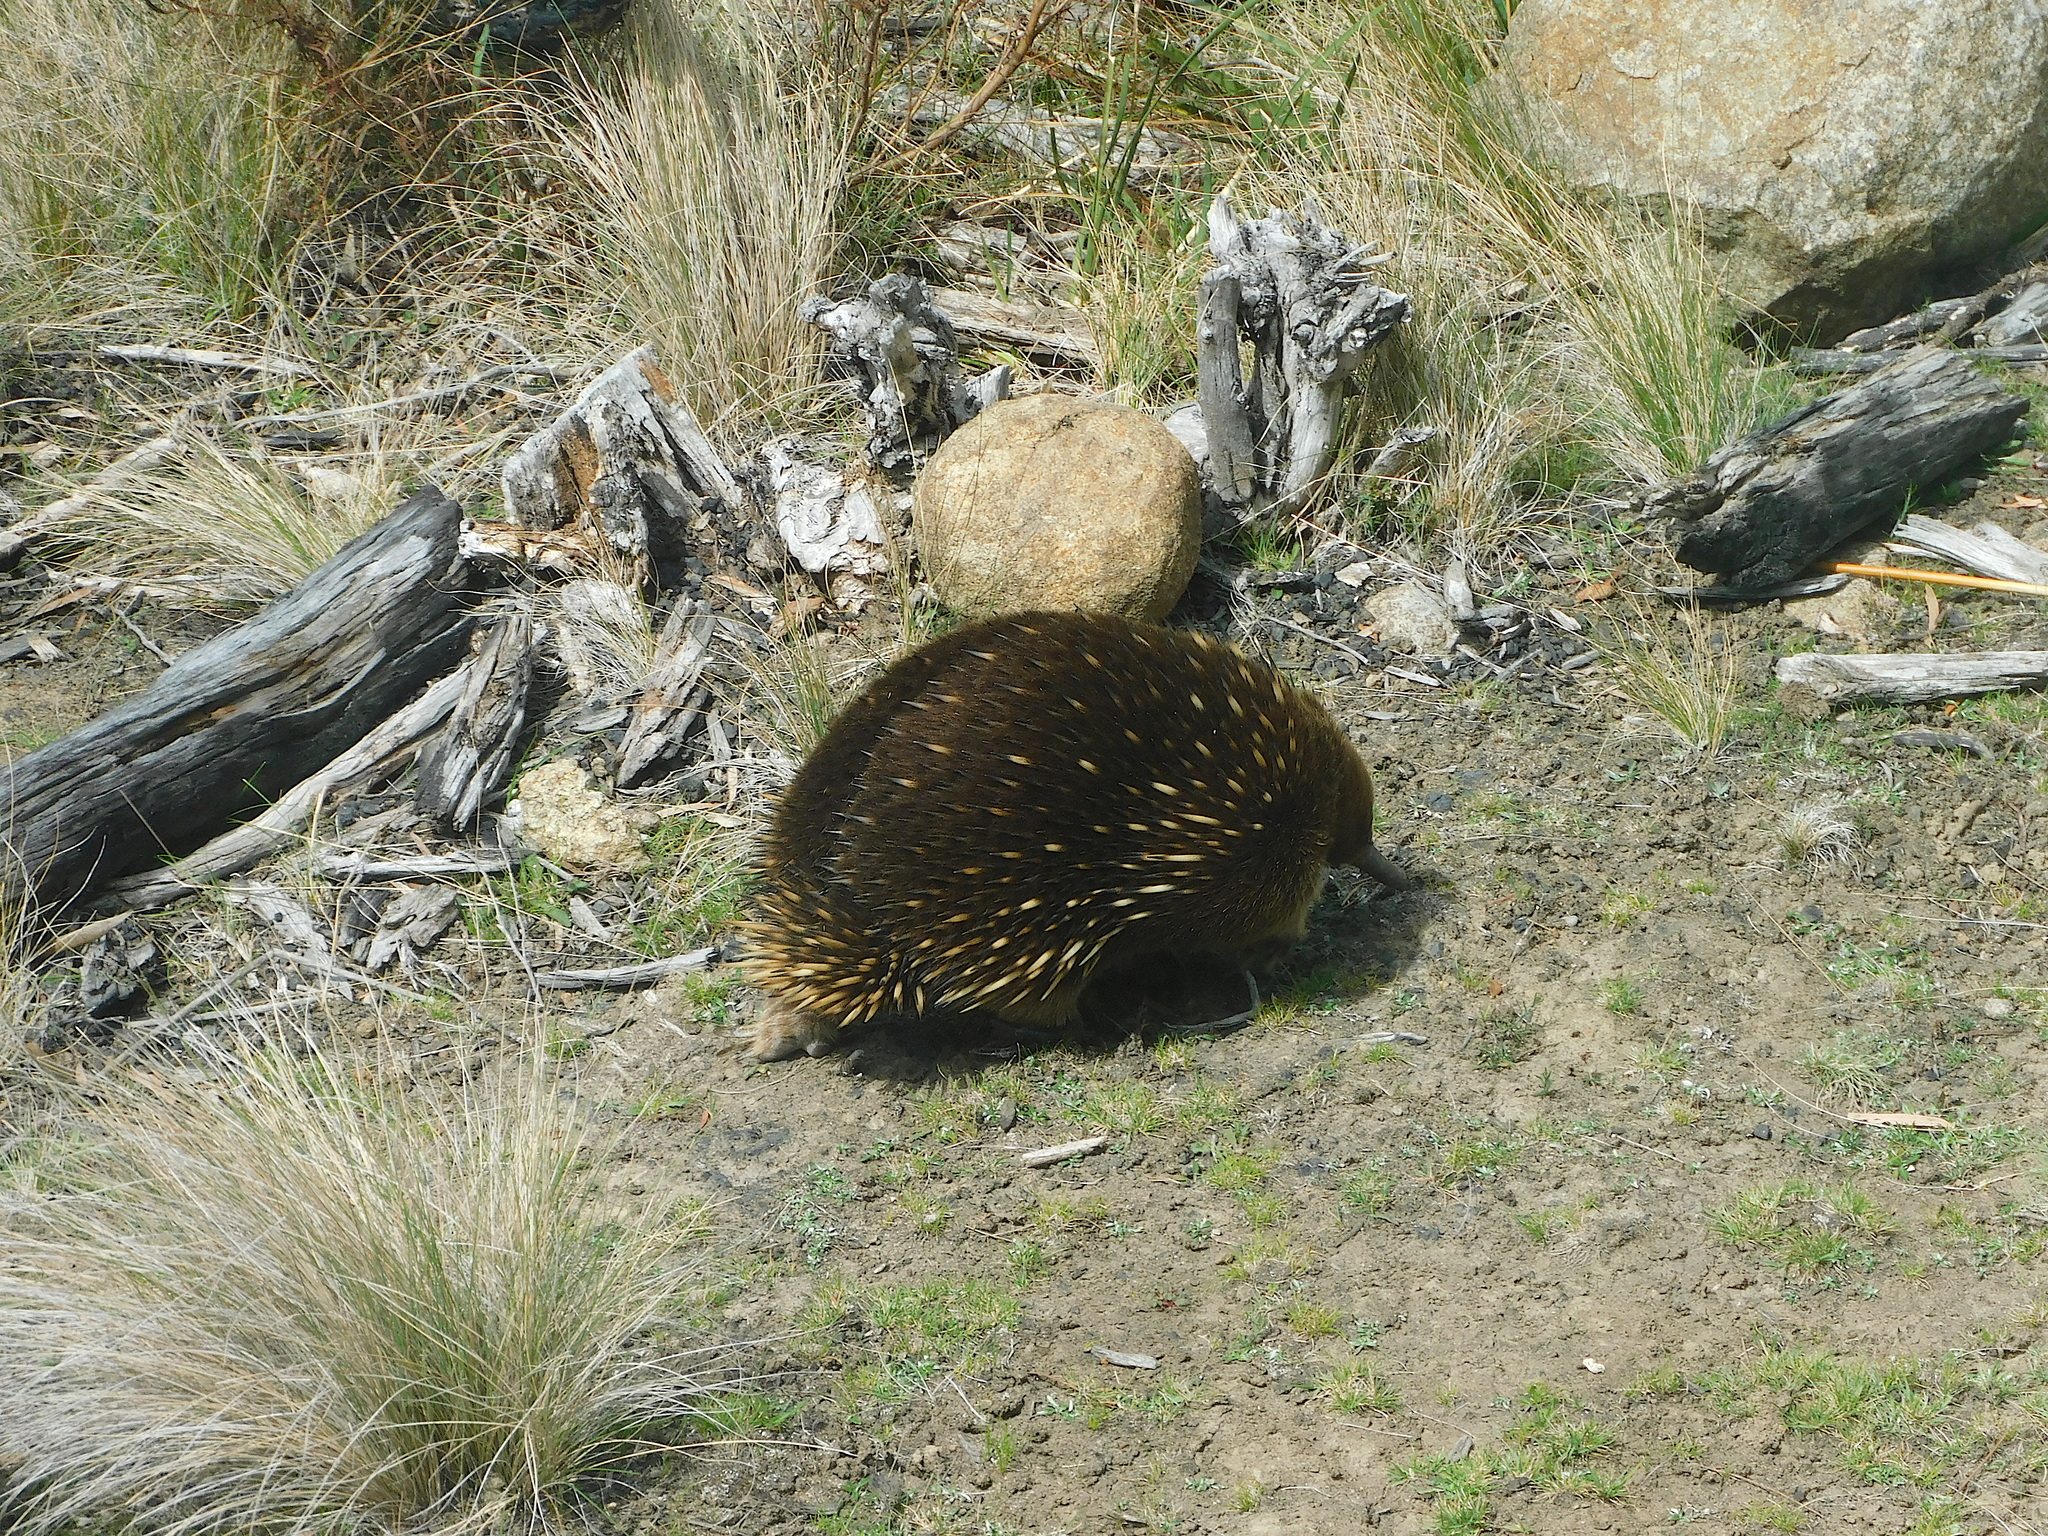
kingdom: Animalia
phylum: Chordata
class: Mammalia
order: Monotremata
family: Tachyglossidae
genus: Tachyglossus
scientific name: Tachyglossus aculeatus
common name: Short-beaked echidna
